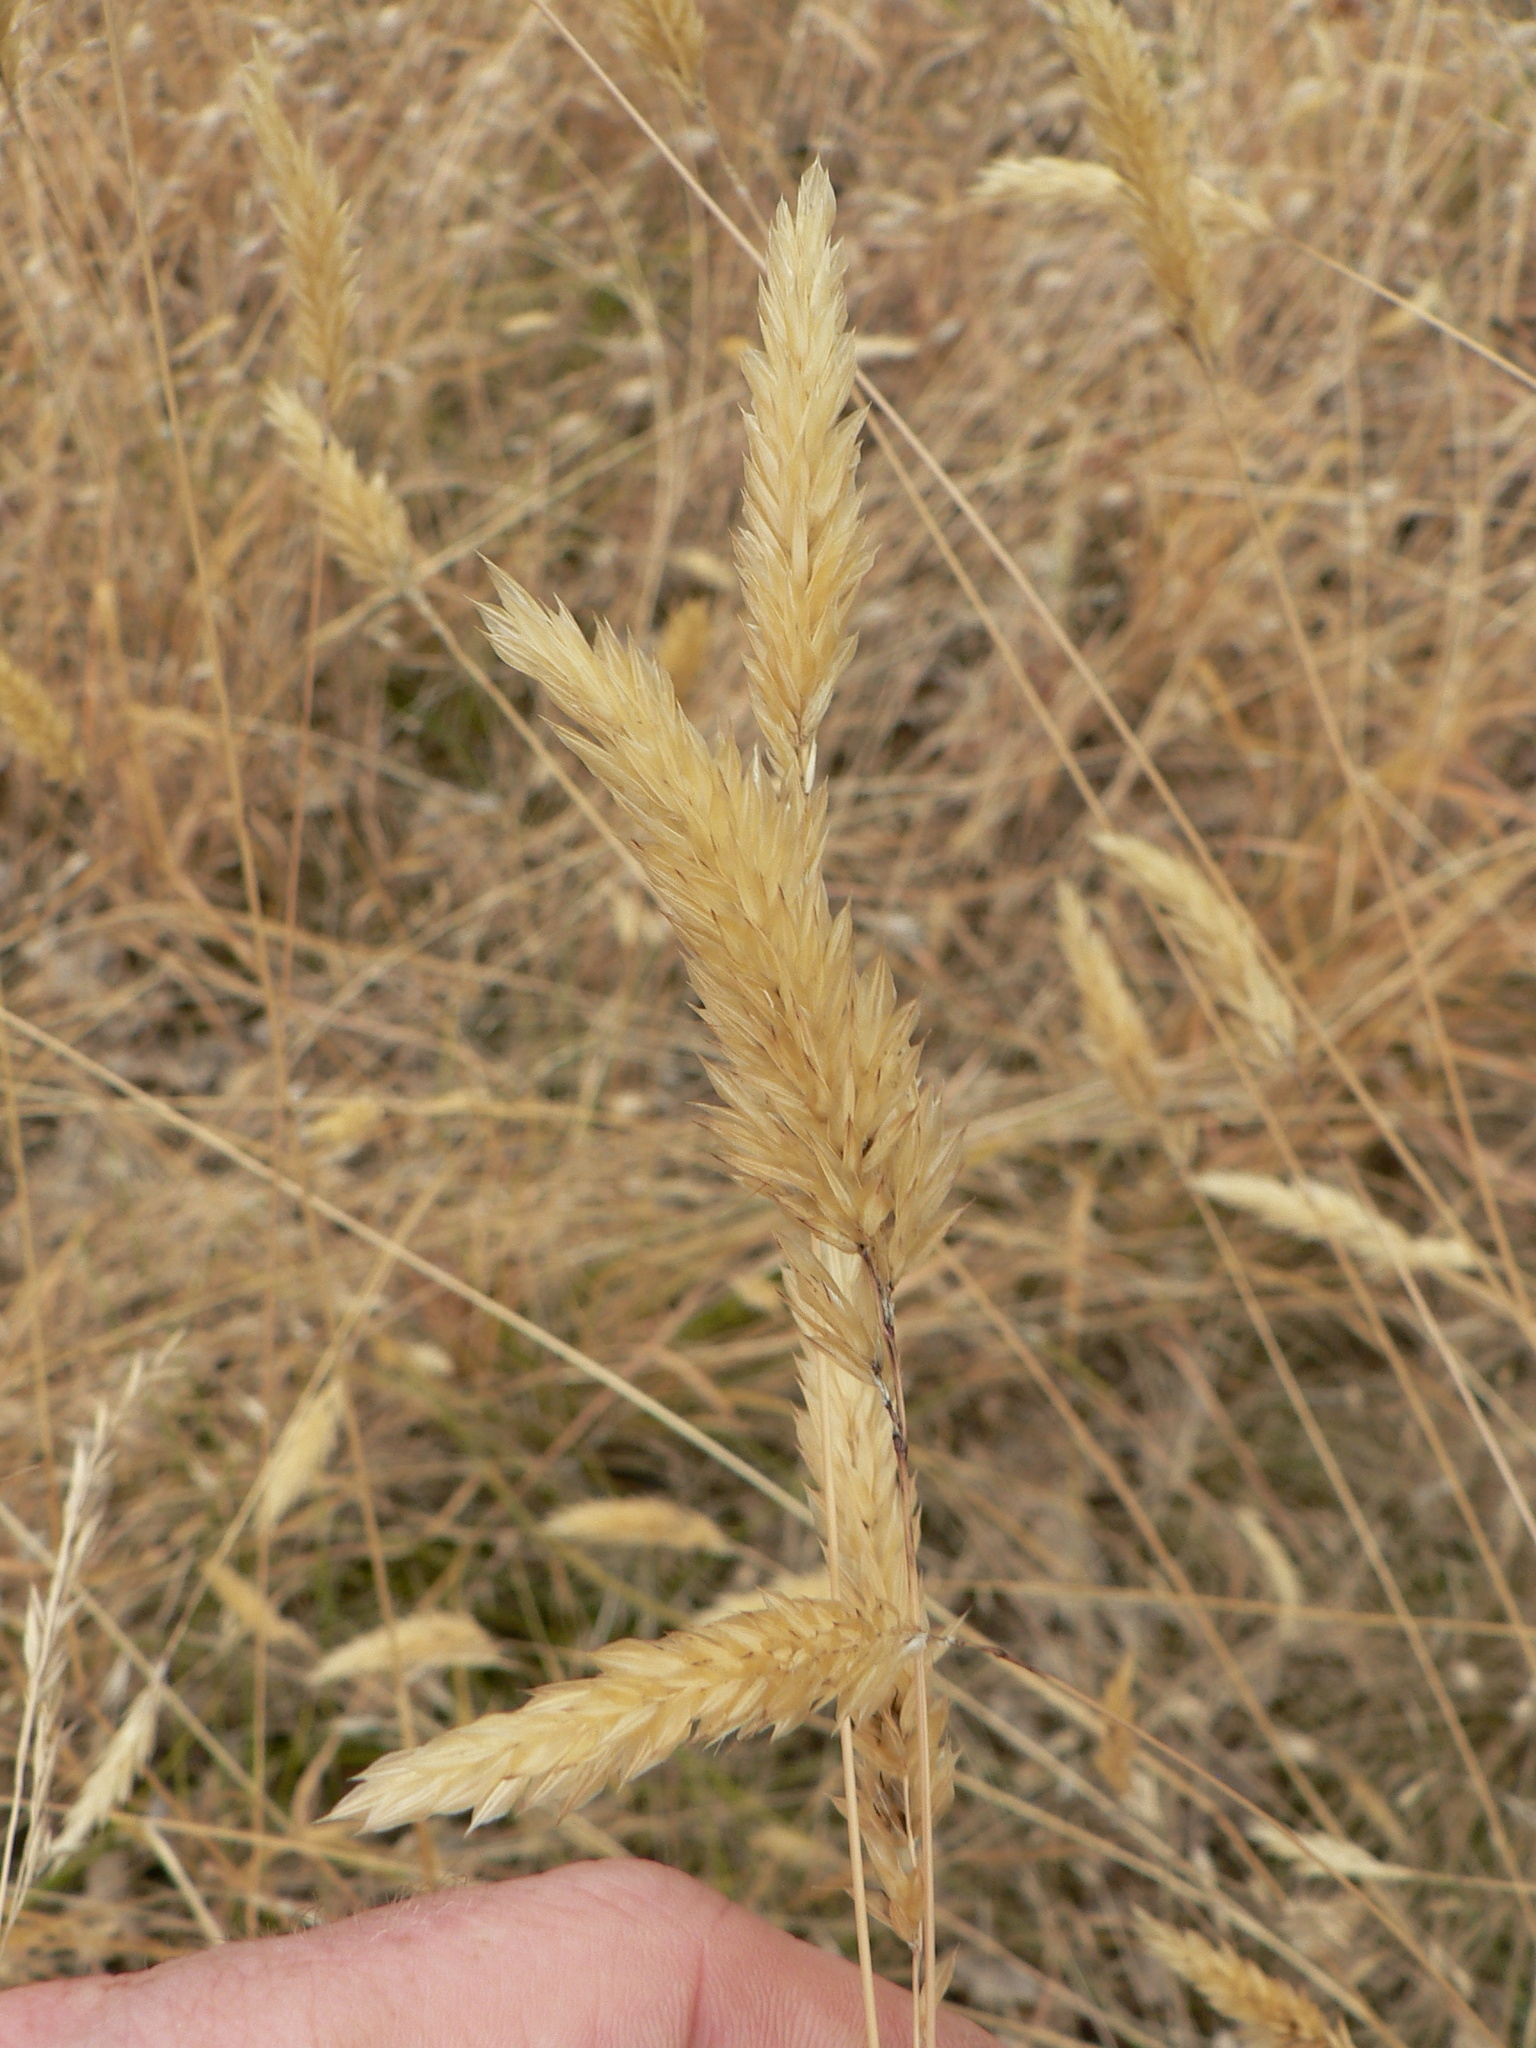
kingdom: Plantae
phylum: Tracheophyta
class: Liliopsida
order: Poales
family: Poaceae
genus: Anthoxanthum
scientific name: Anthoxanthum odoratum
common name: Sweet vernalgrass
